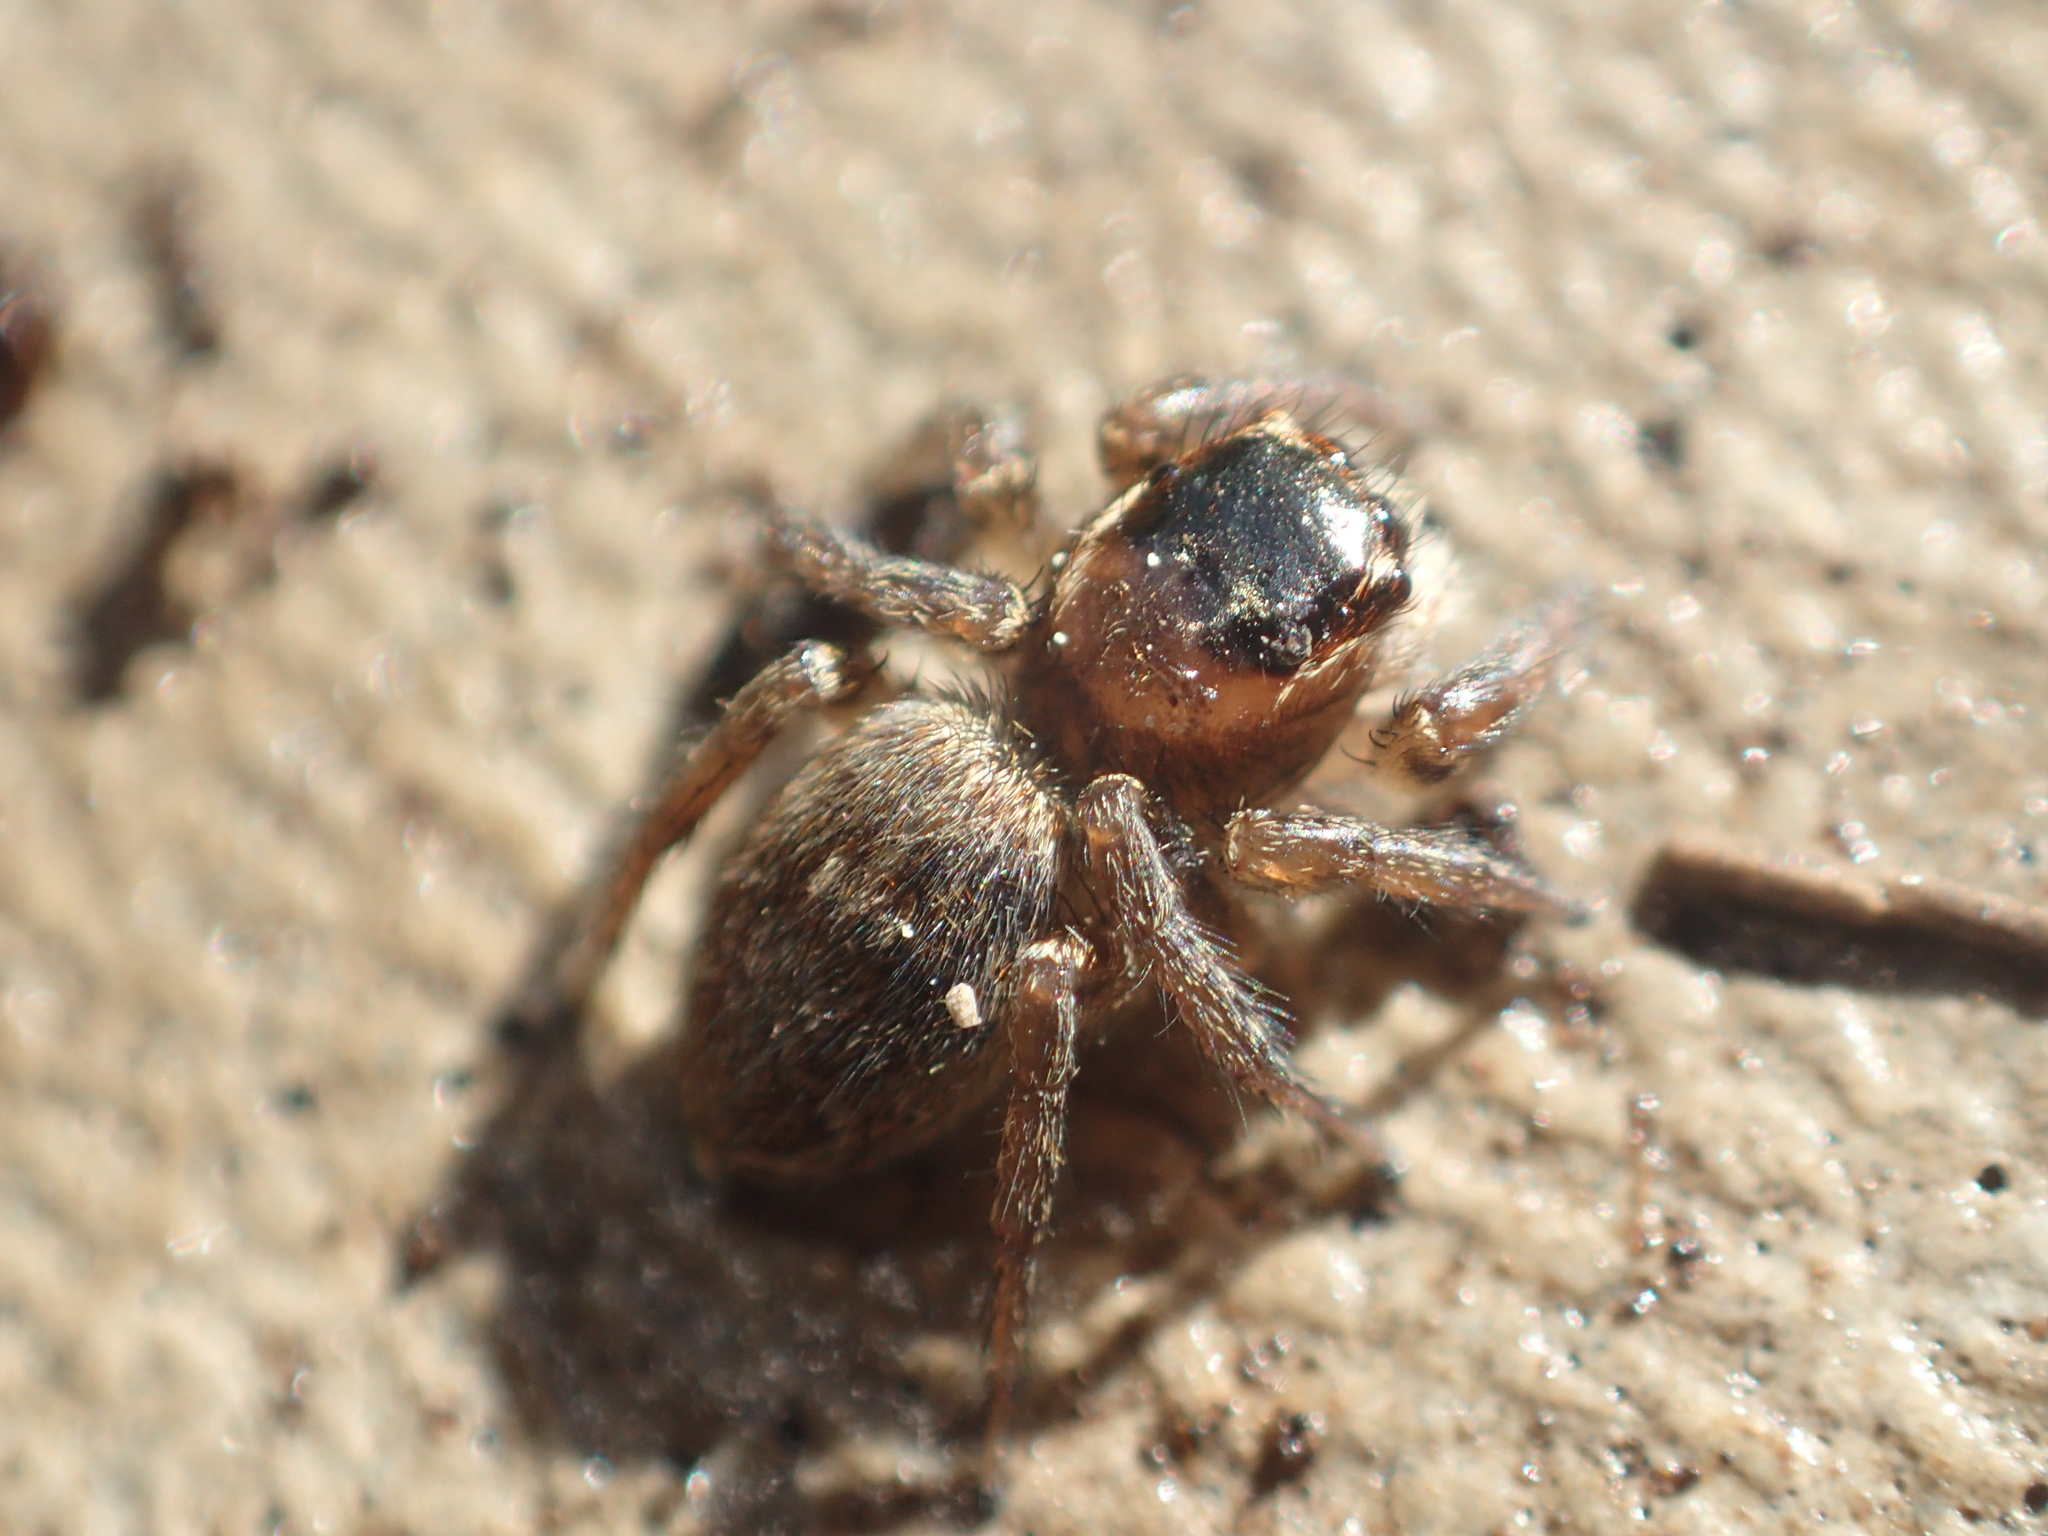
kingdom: Animalia
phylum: Arthropoda
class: Arachnida
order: Araneae
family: Salticidae
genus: Maratus
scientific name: Maratus griseus
